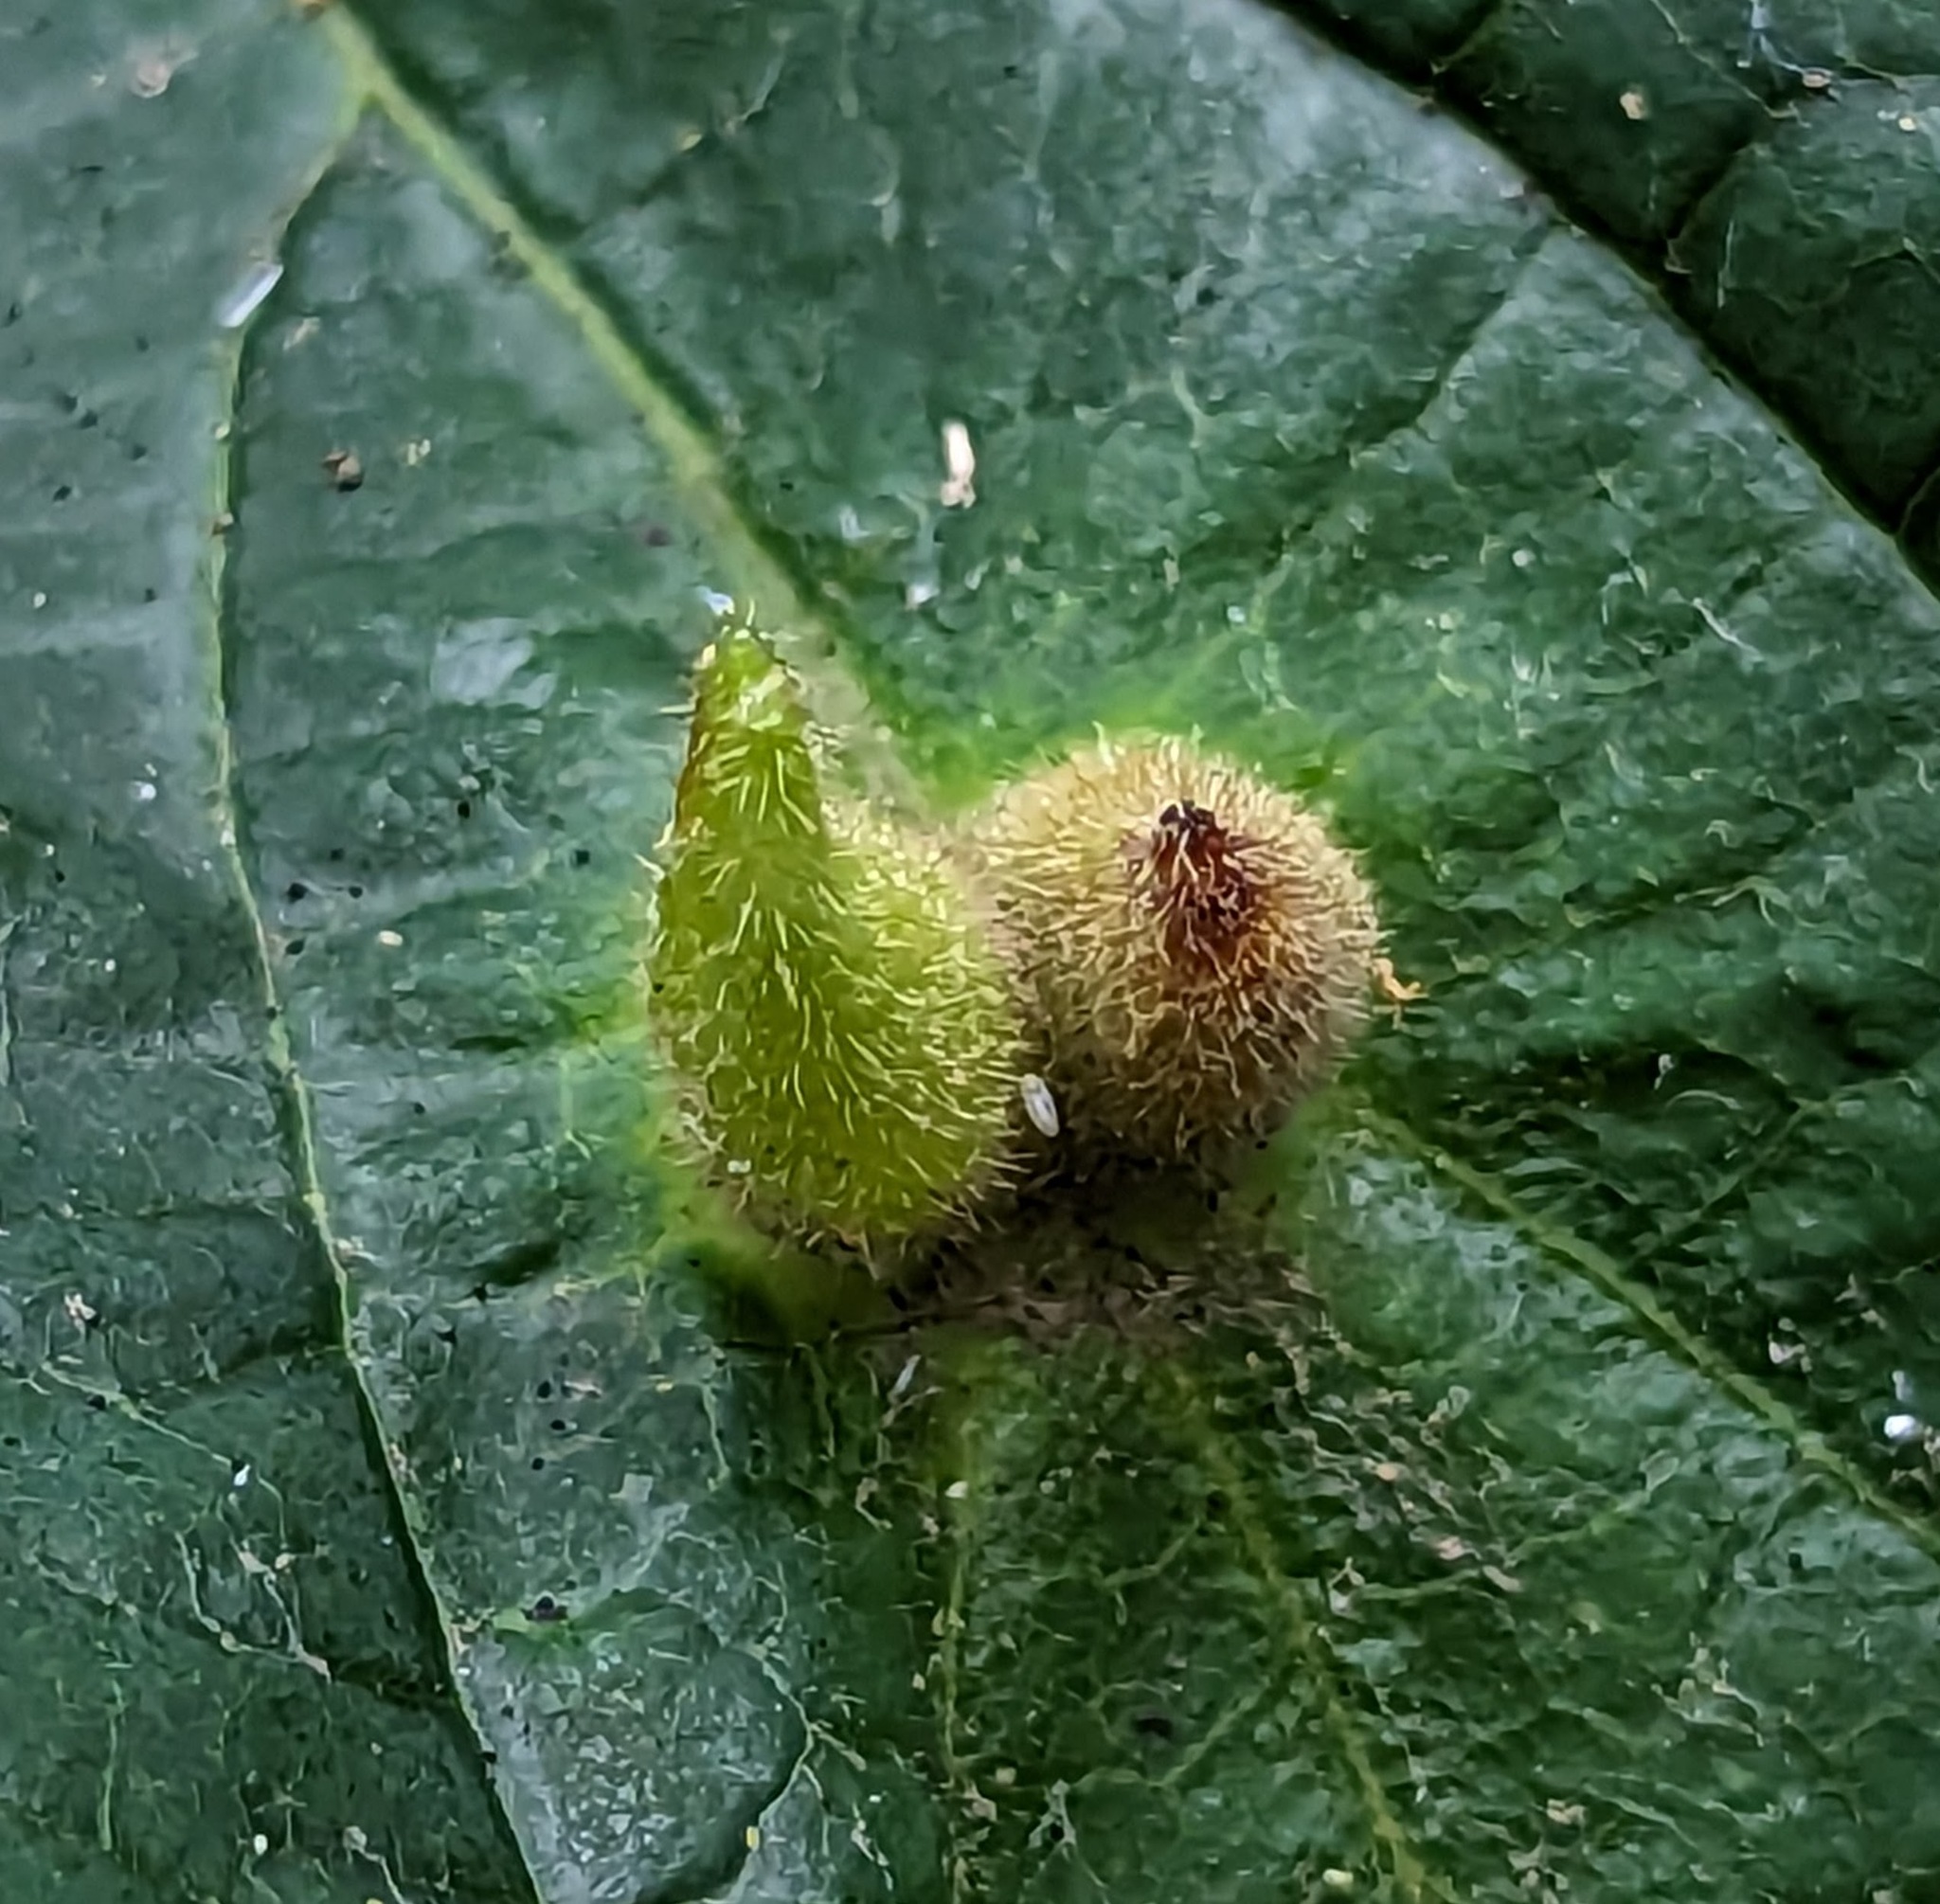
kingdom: Animalia
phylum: Arthropoda
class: Insecta
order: Hemiptera
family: Aphididae
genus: Hormaphis
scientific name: Hormaphis hamamelidis
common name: Witch-hazel cone gall aphid
